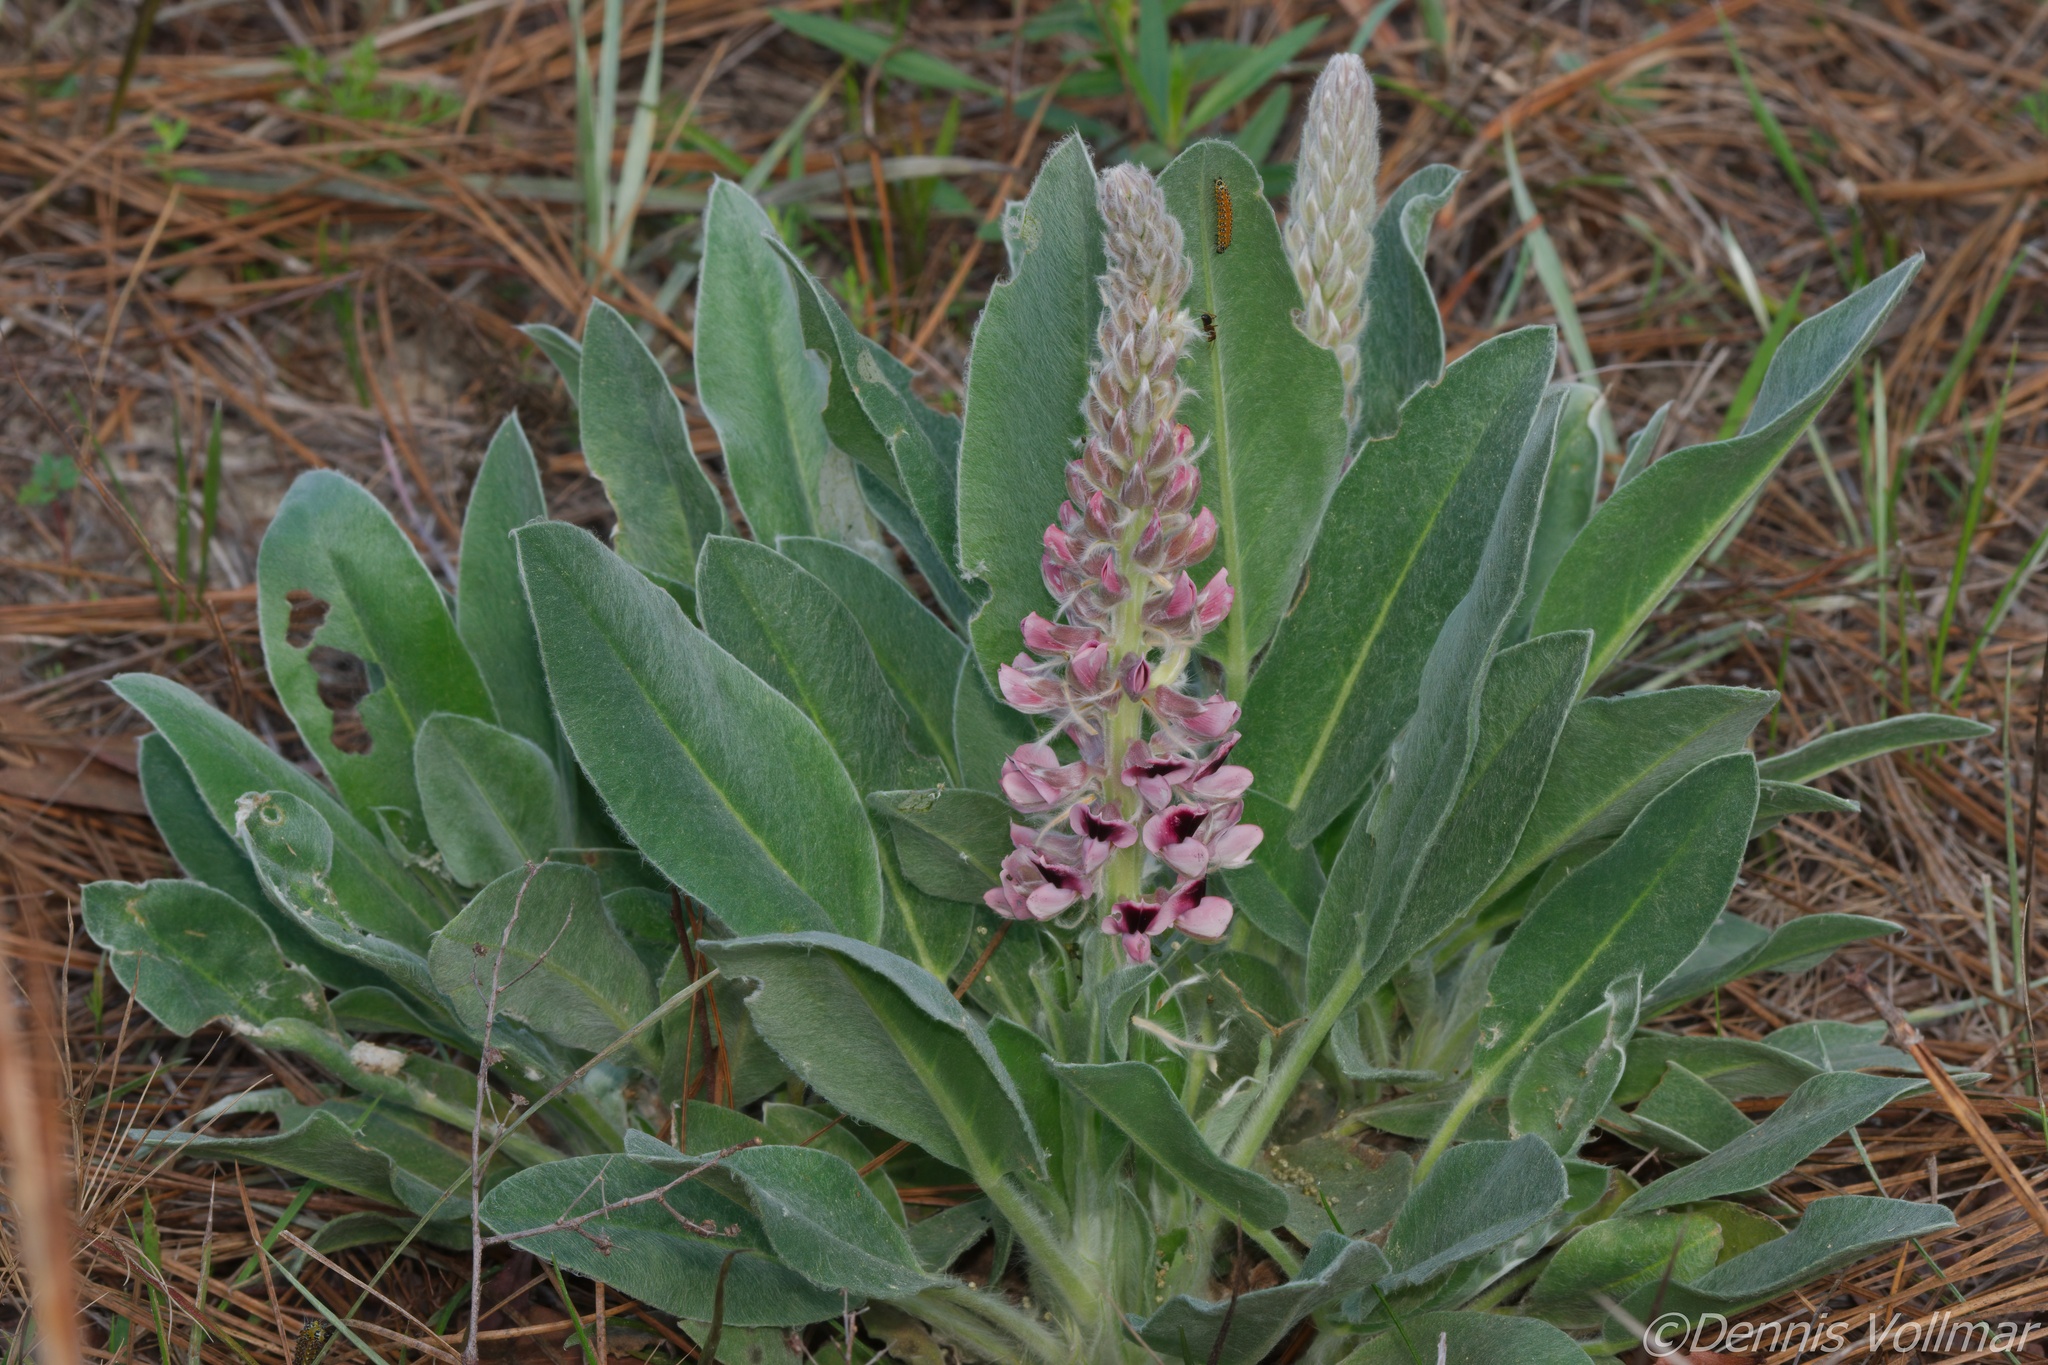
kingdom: Plantae
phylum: Tracheophyta
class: Magnoliopsida
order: Fabales
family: Fabaceae
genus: Lupinus
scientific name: Lupinus villosus
